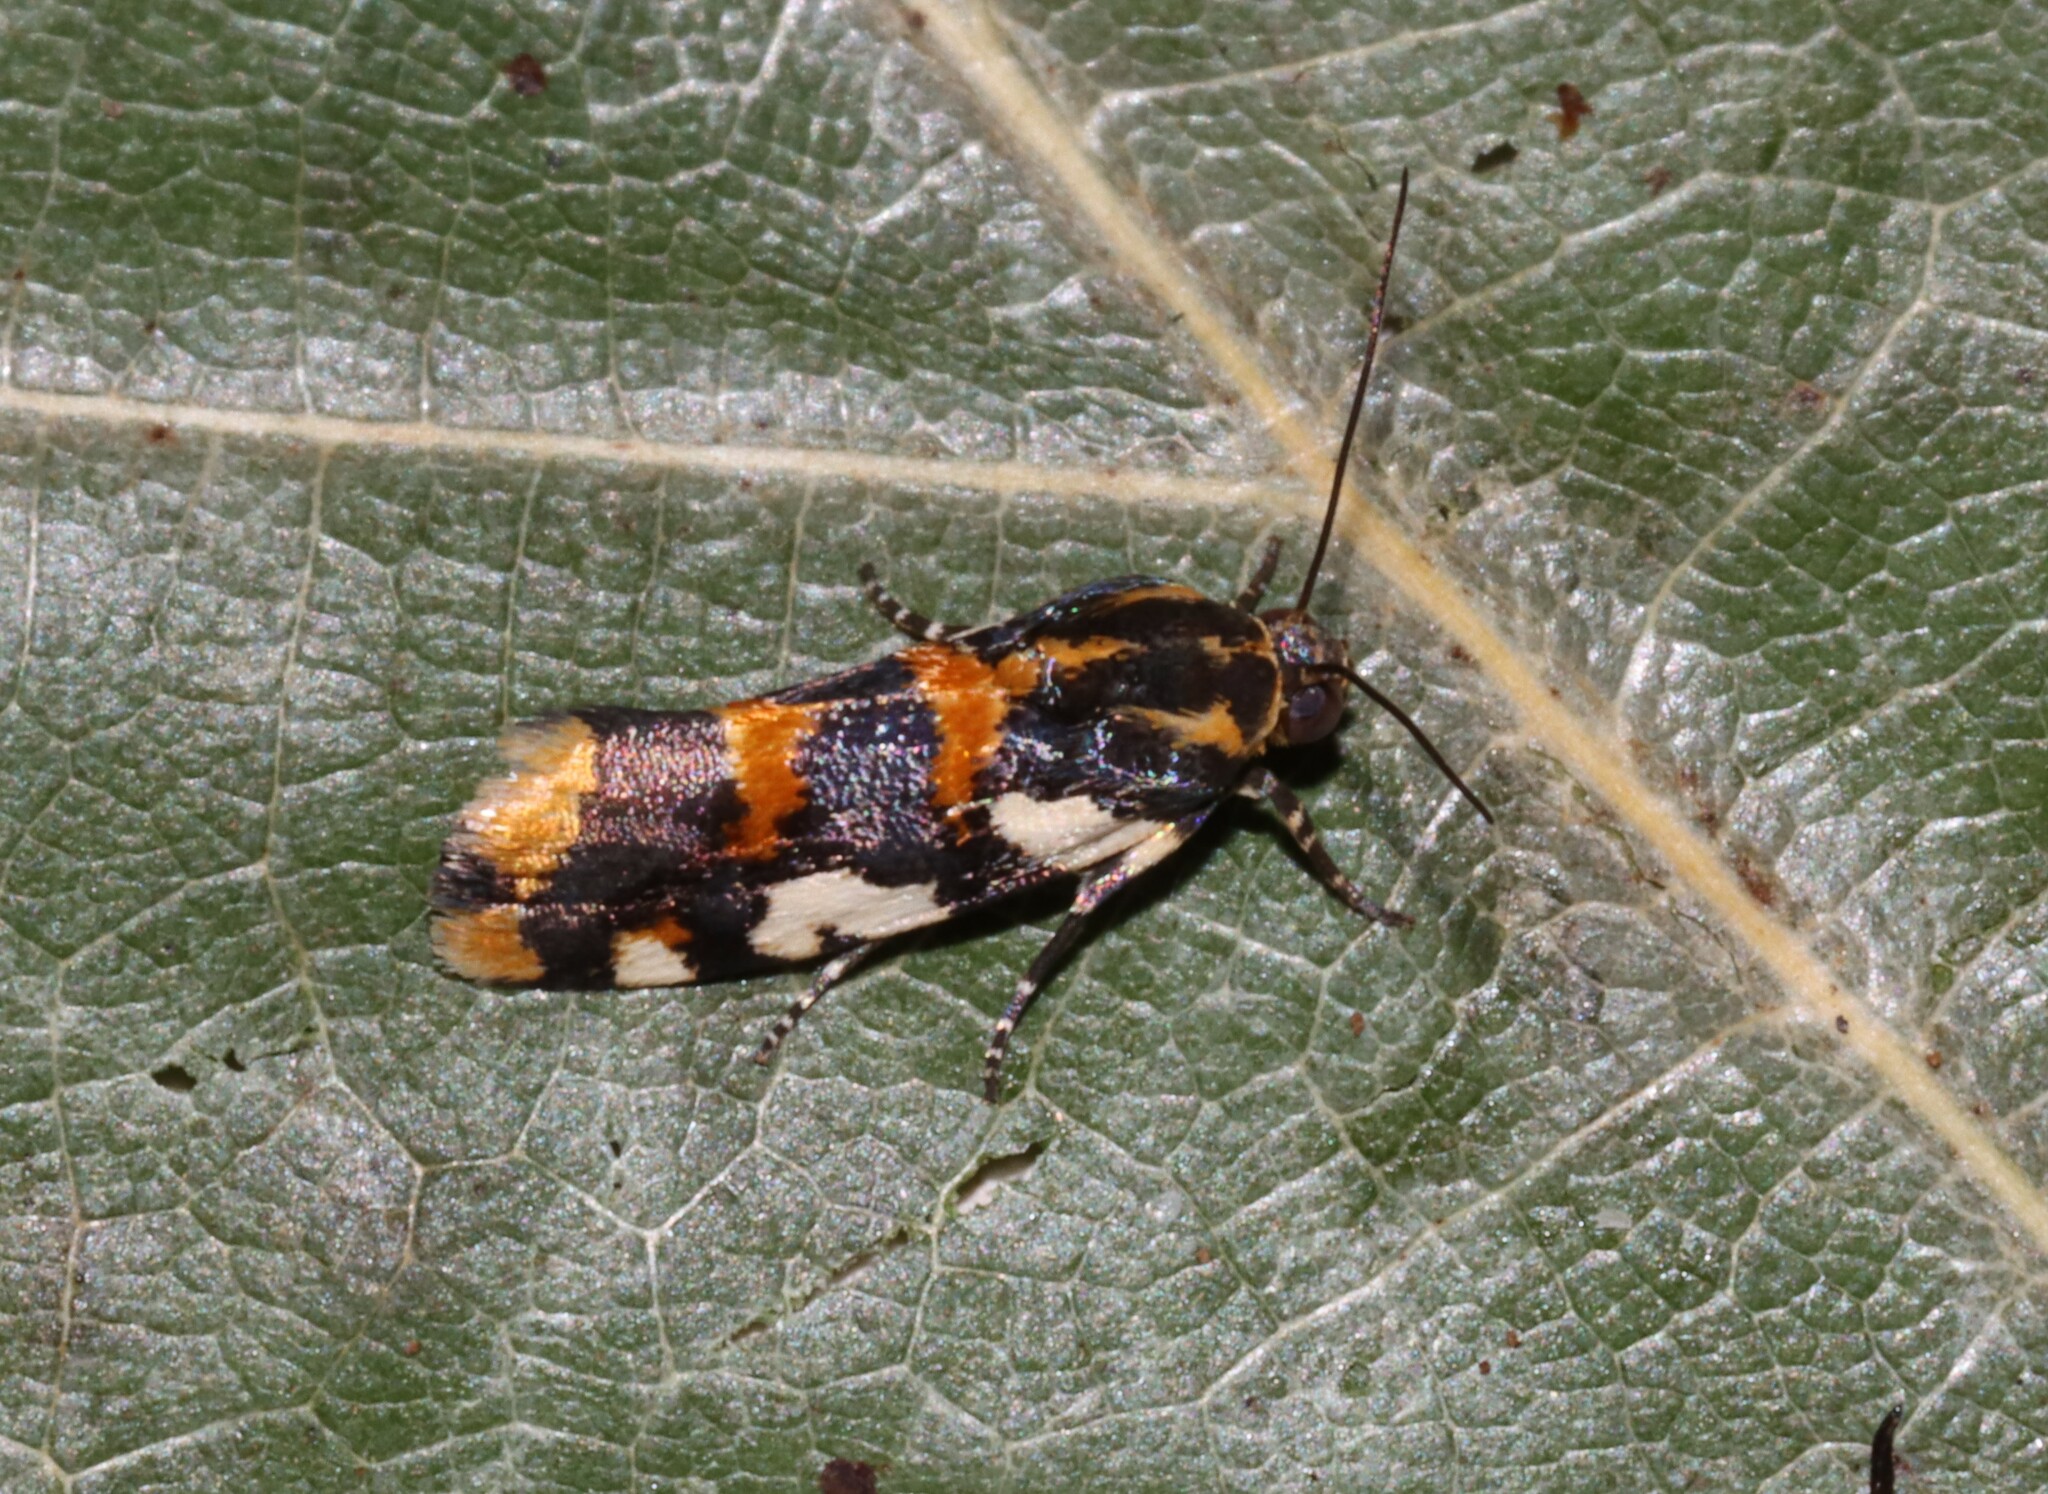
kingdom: Animalia
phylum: Arthropoda
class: Insecta
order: Lepidoptera
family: Noctuidae
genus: Acontia
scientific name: Acontia dama
